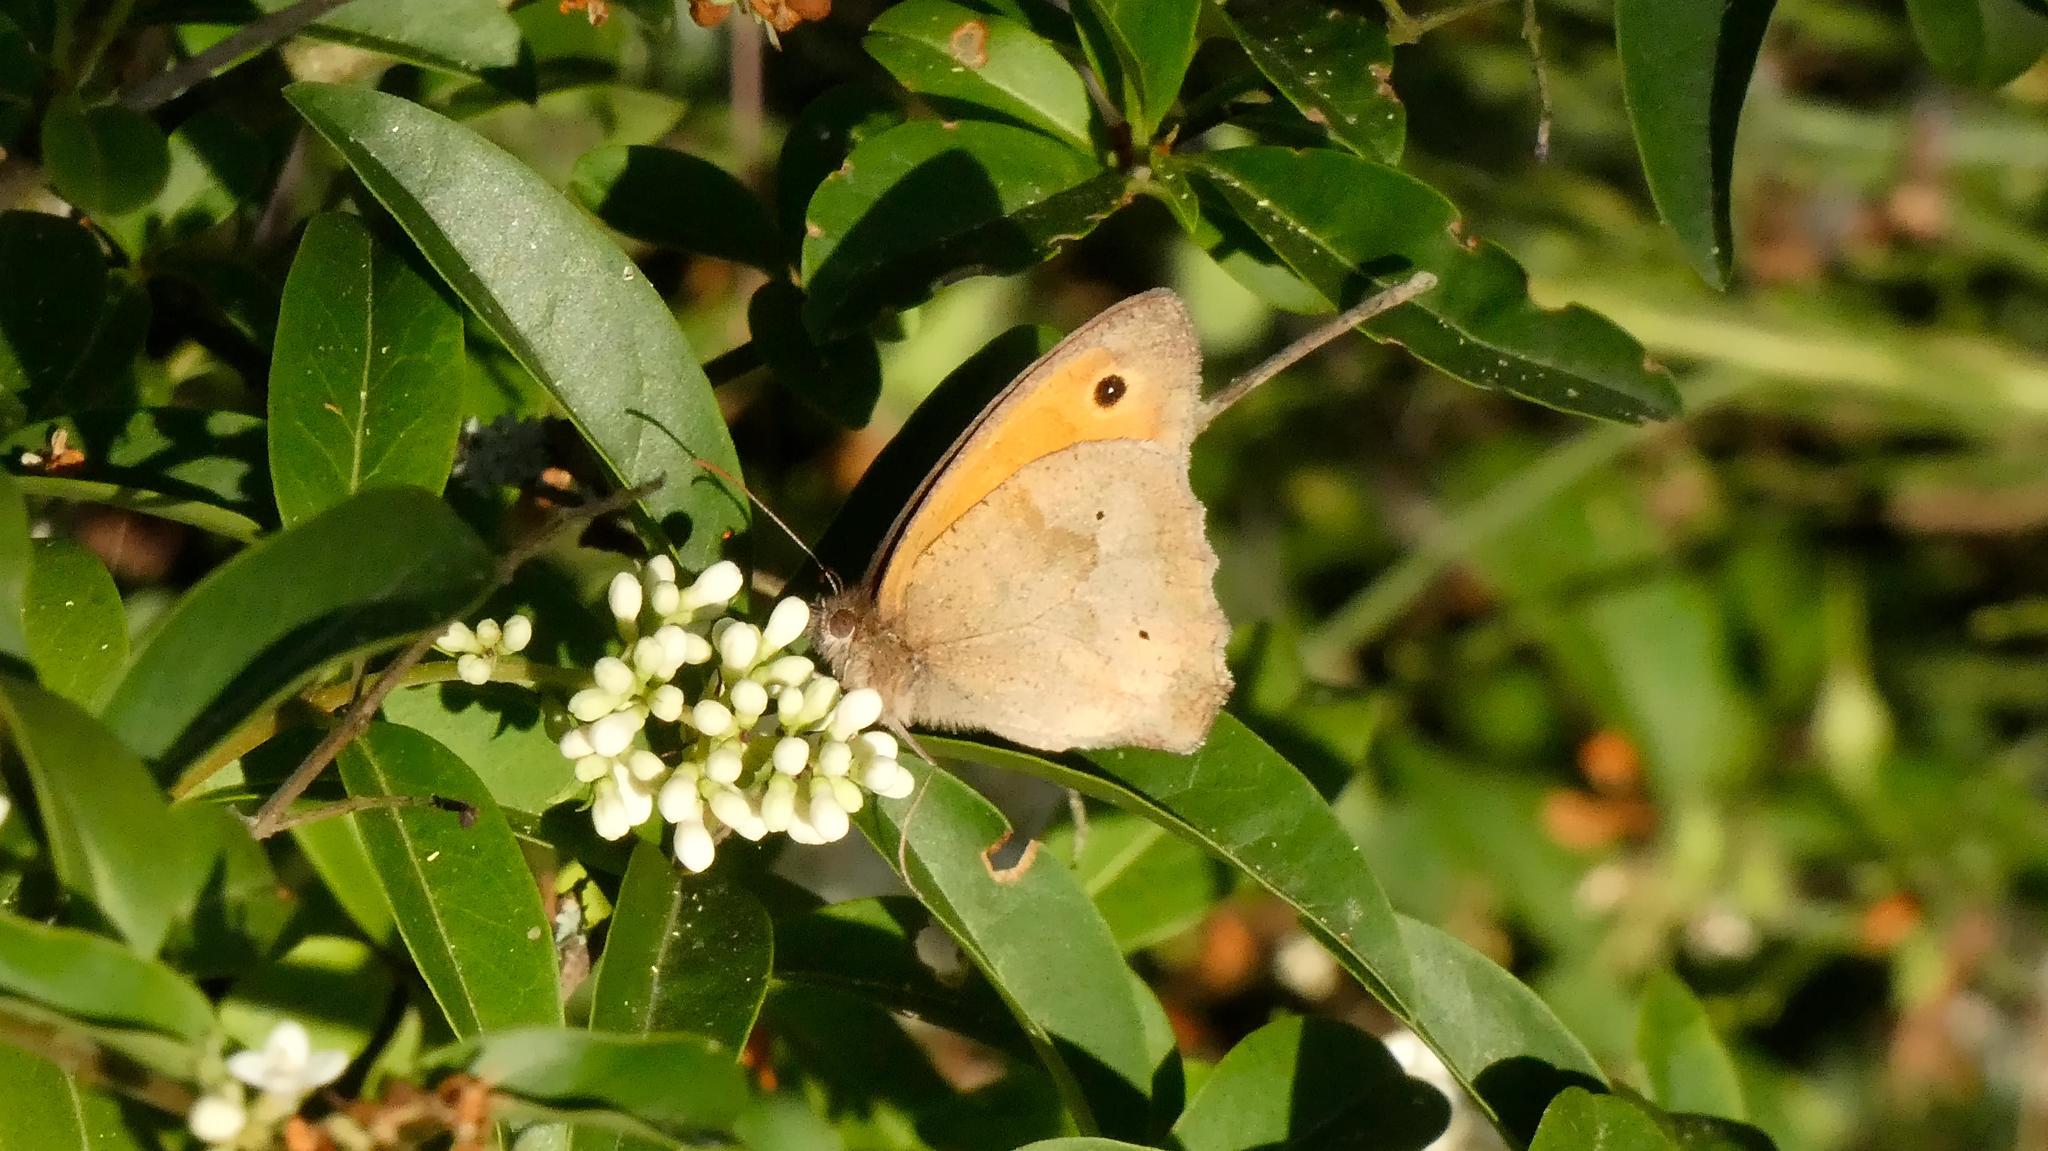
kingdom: Animalia
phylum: Arthropoda
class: Insecta
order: Lepidoptera
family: Nymphalidae
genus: Maniola
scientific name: Maniola jurtina
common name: Meadow brown
